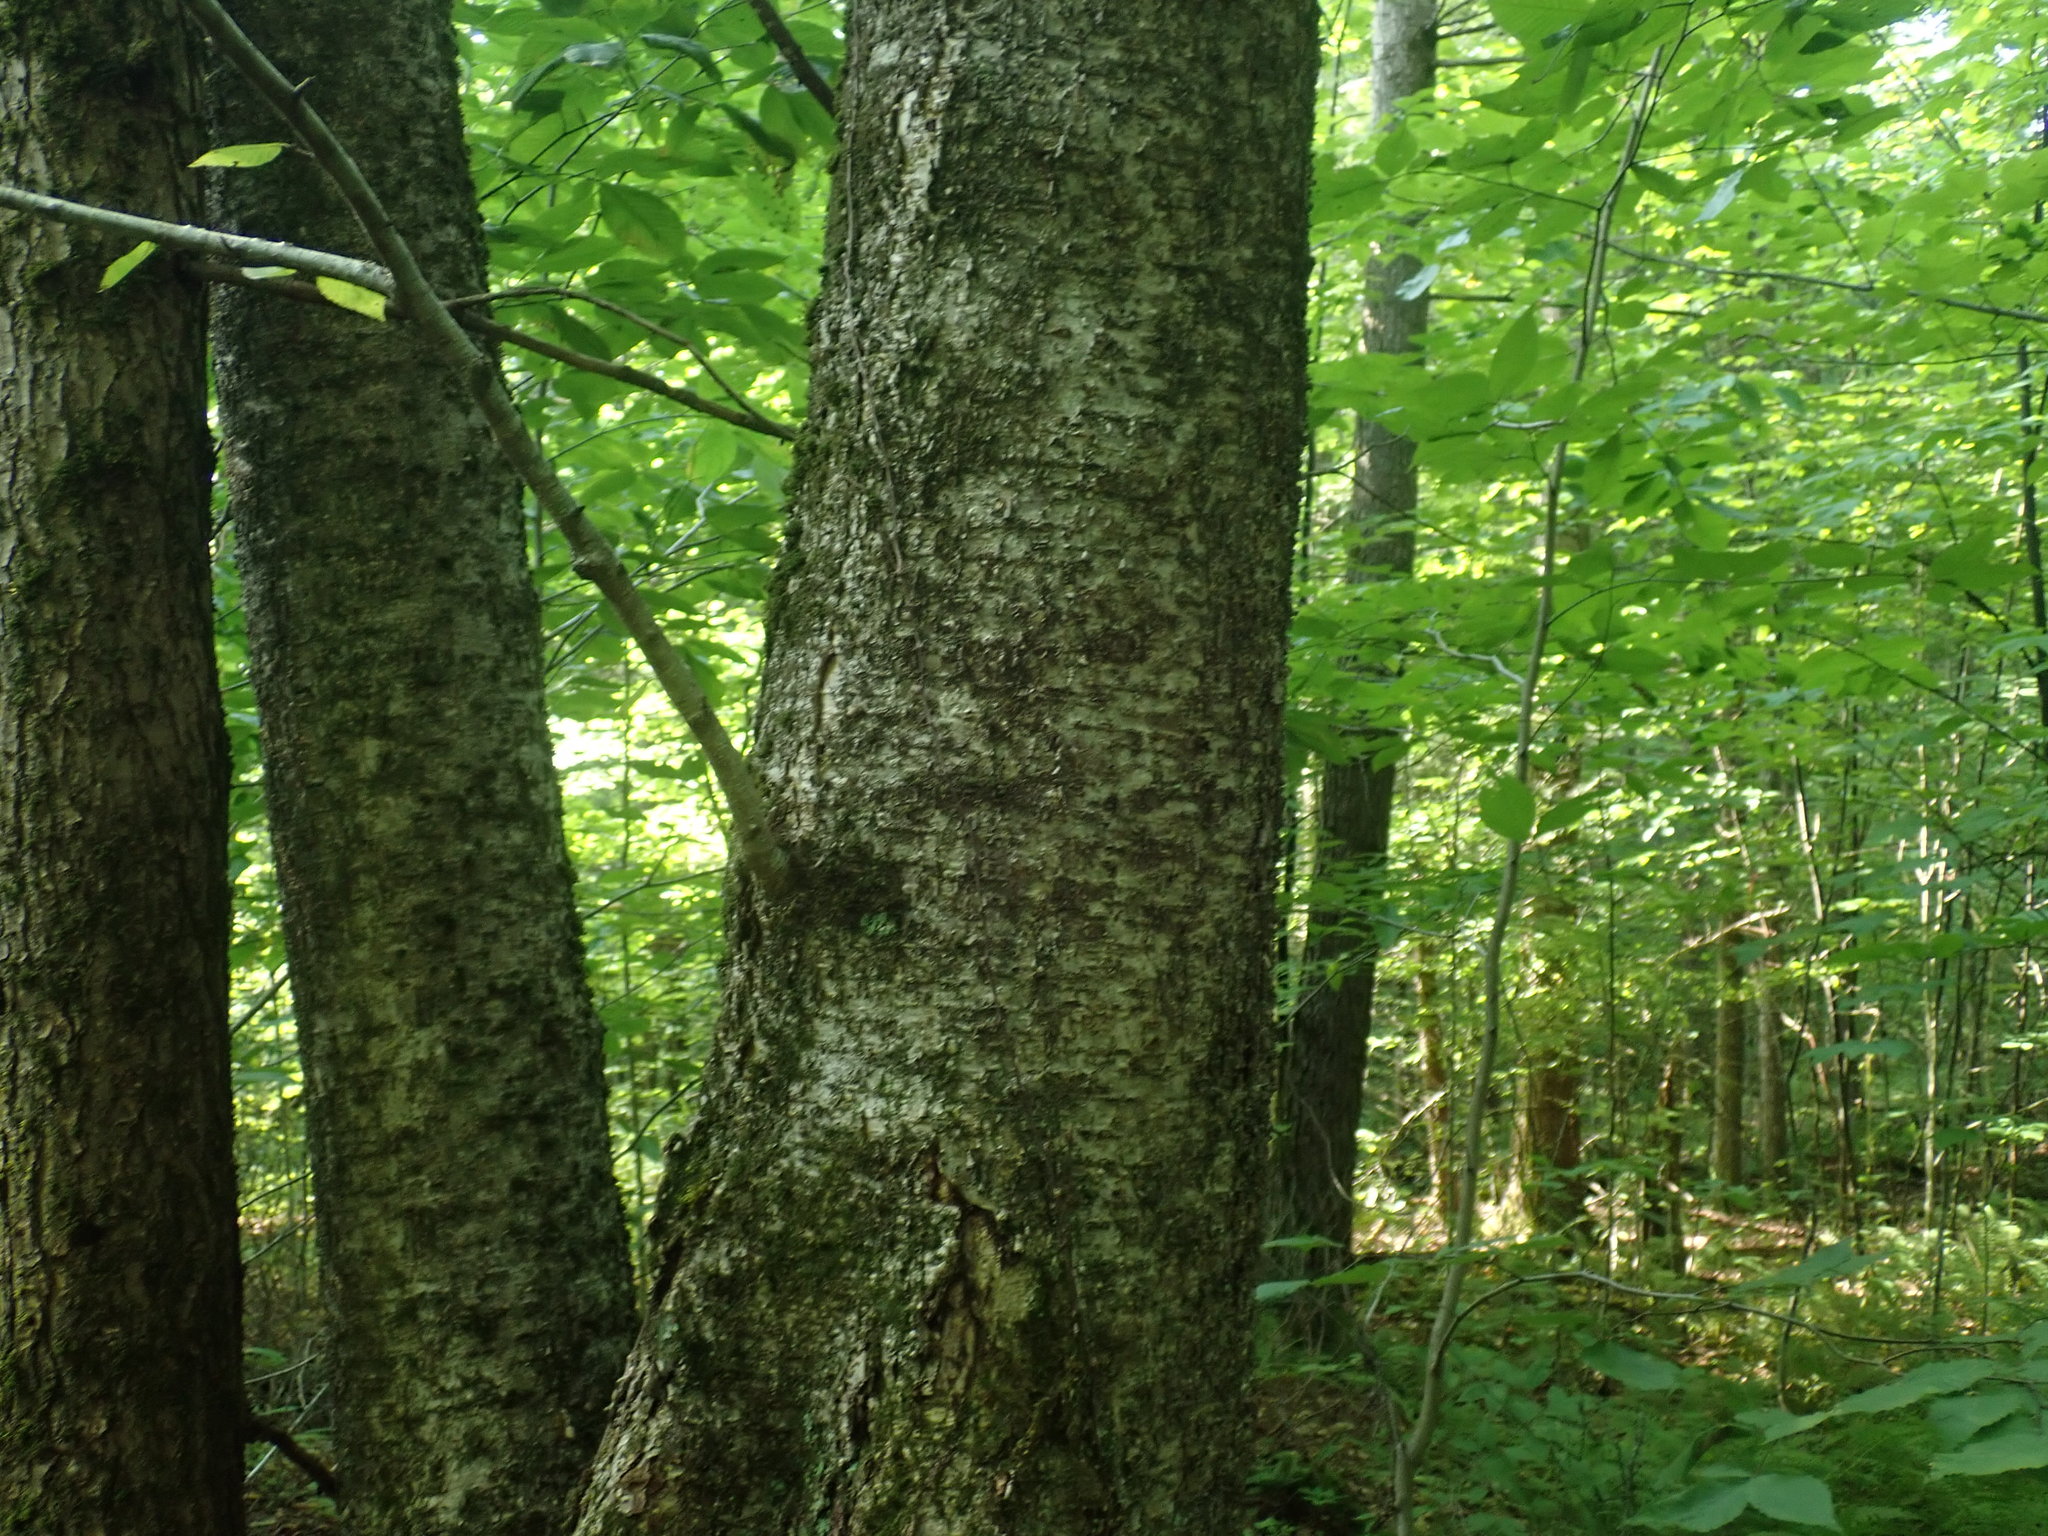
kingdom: Plantae
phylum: Tracheophyta
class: Magnoliopsida
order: Fagales
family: Betulaceae
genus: Betula
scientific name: Betula alleghaniensis
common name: Yellow birch
